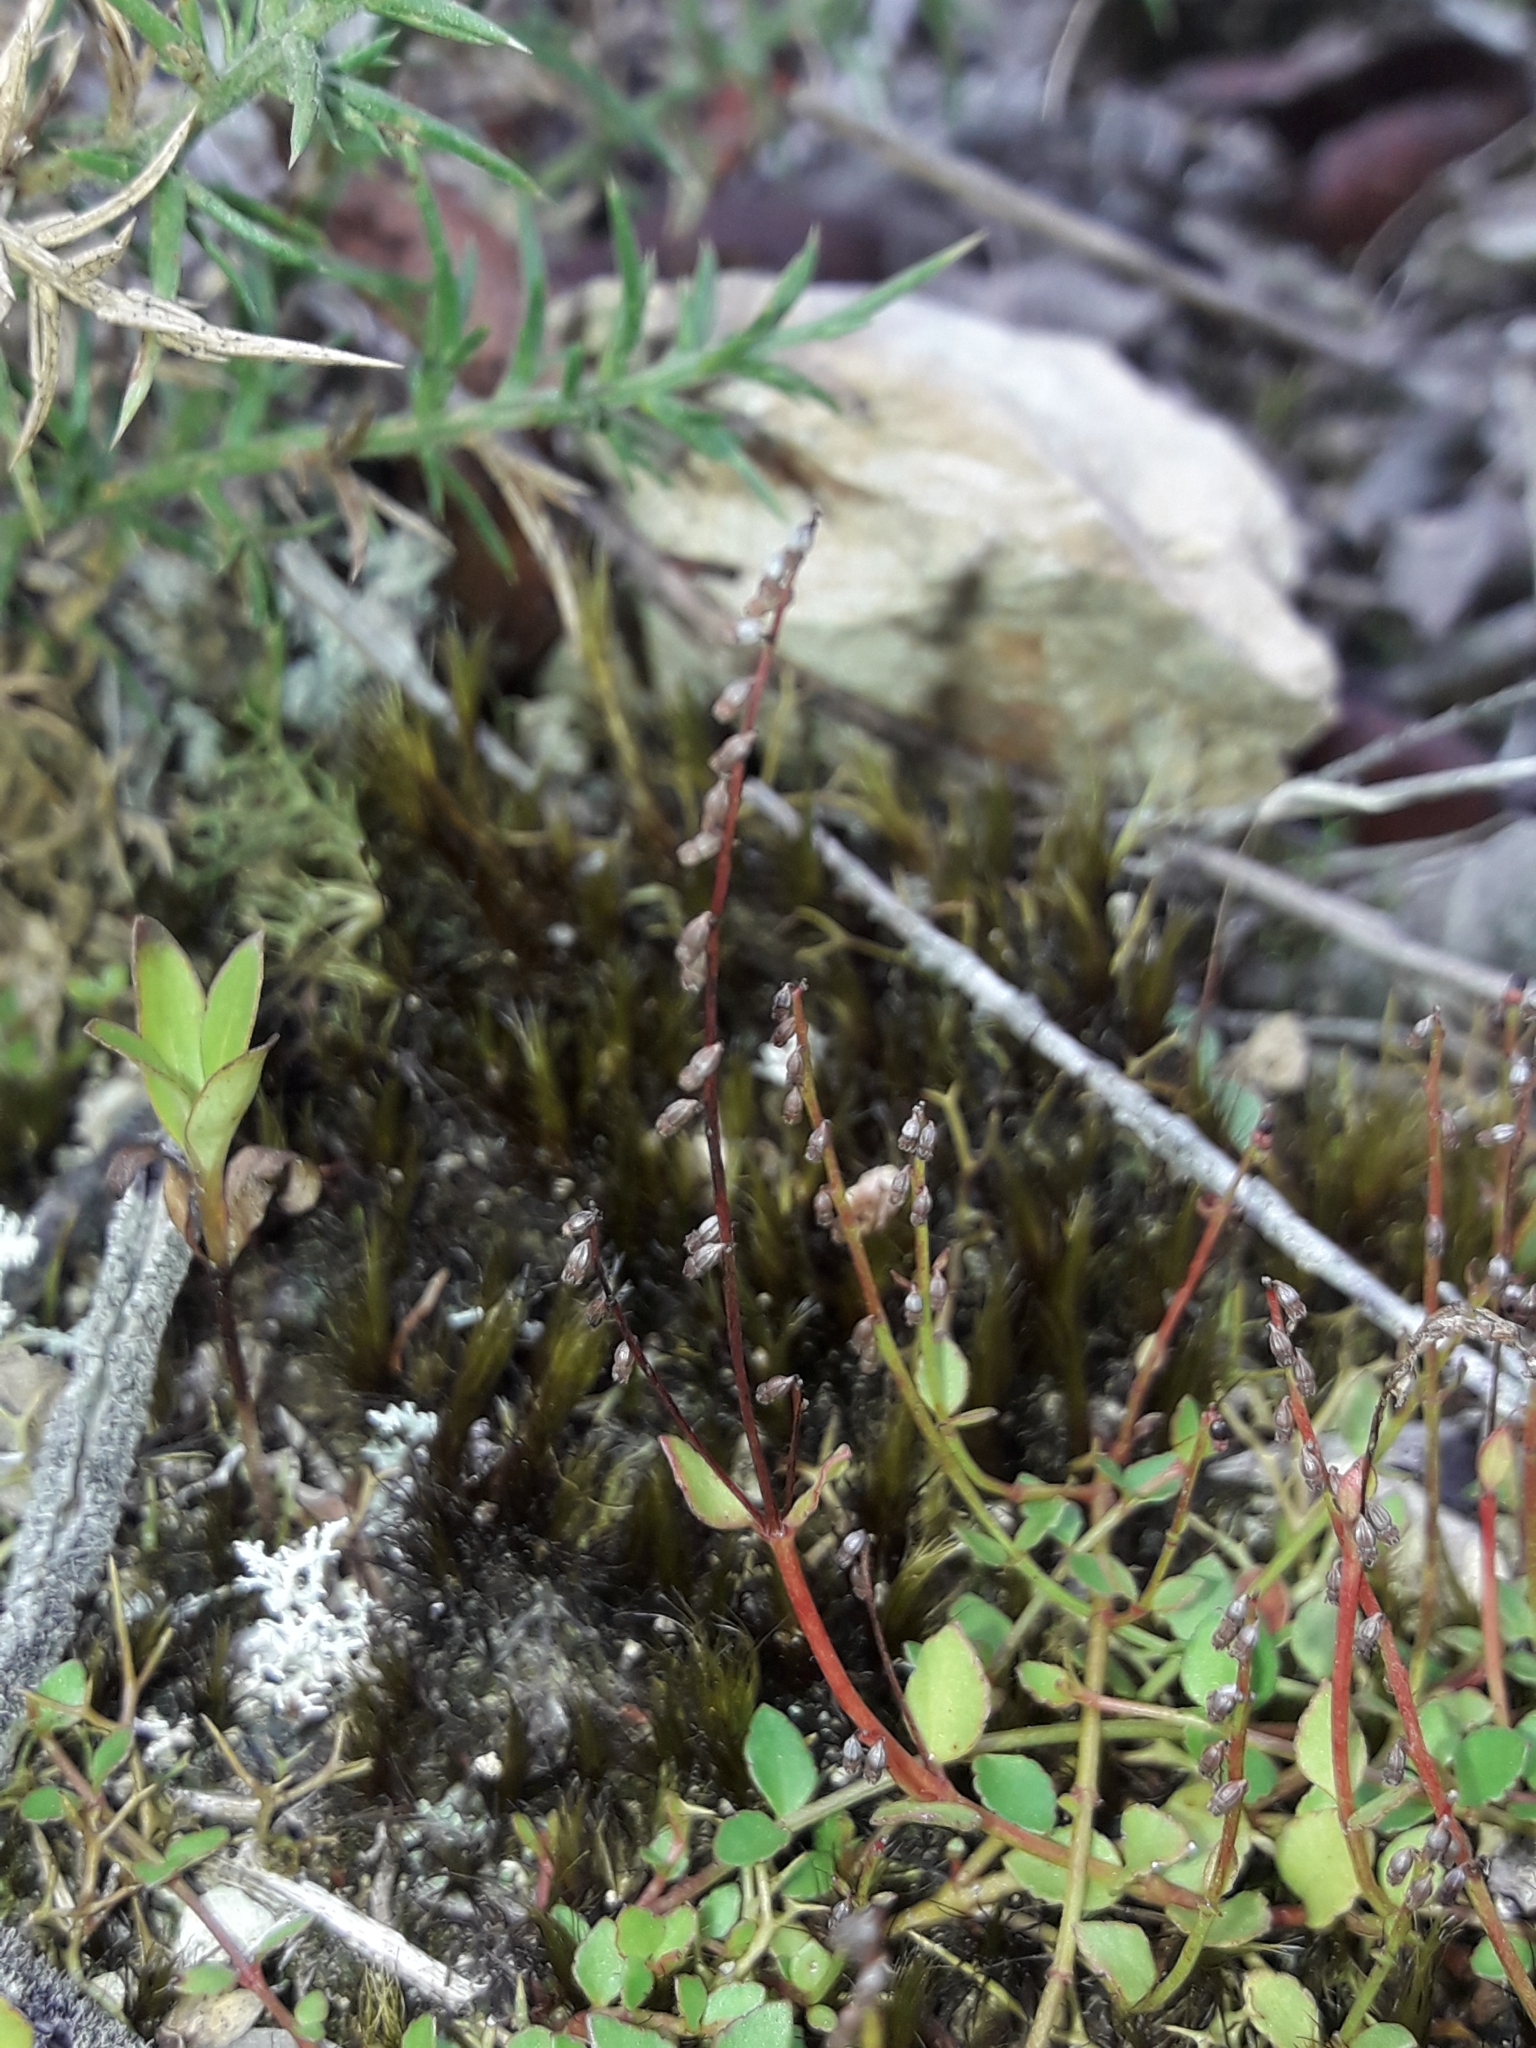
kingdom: Plantae
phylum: Tracheophyta
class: Magnoliopsida
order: Saxifragales
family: Haloragaceae
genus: Gonocarpus
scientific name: Gonocarpus micranthus
